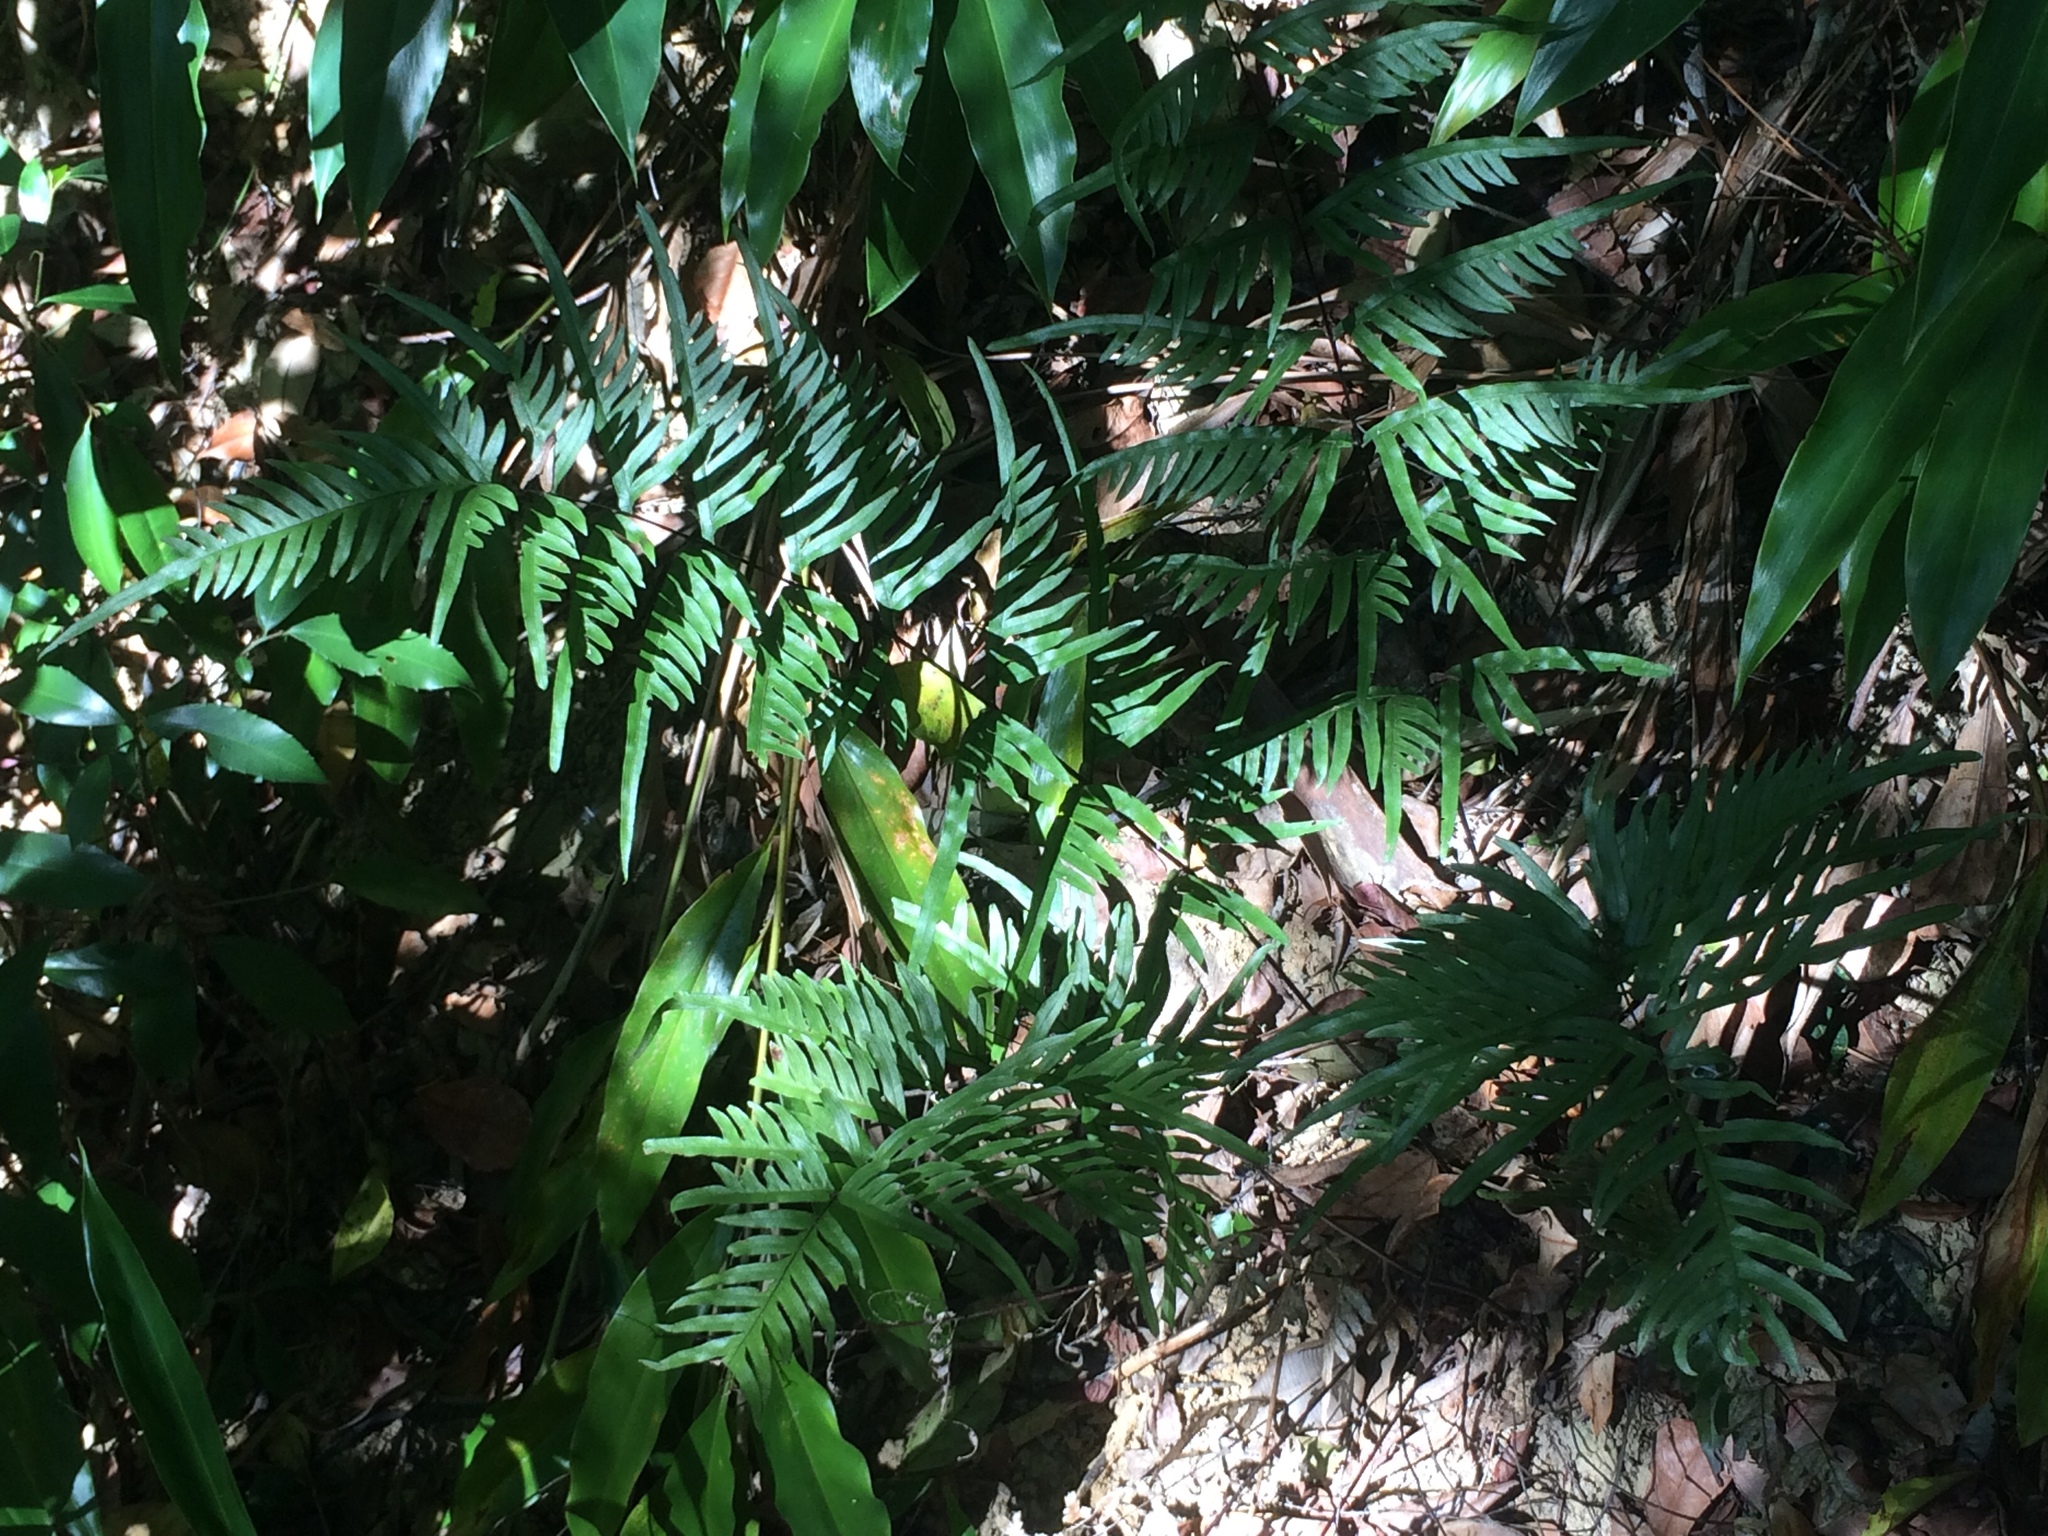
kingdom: Plantae
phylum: Tracheophyta
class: Polypodiopsida
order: Polypodiales
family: Pteridaceae
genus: Pteris
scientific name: Pteris semipinnata
